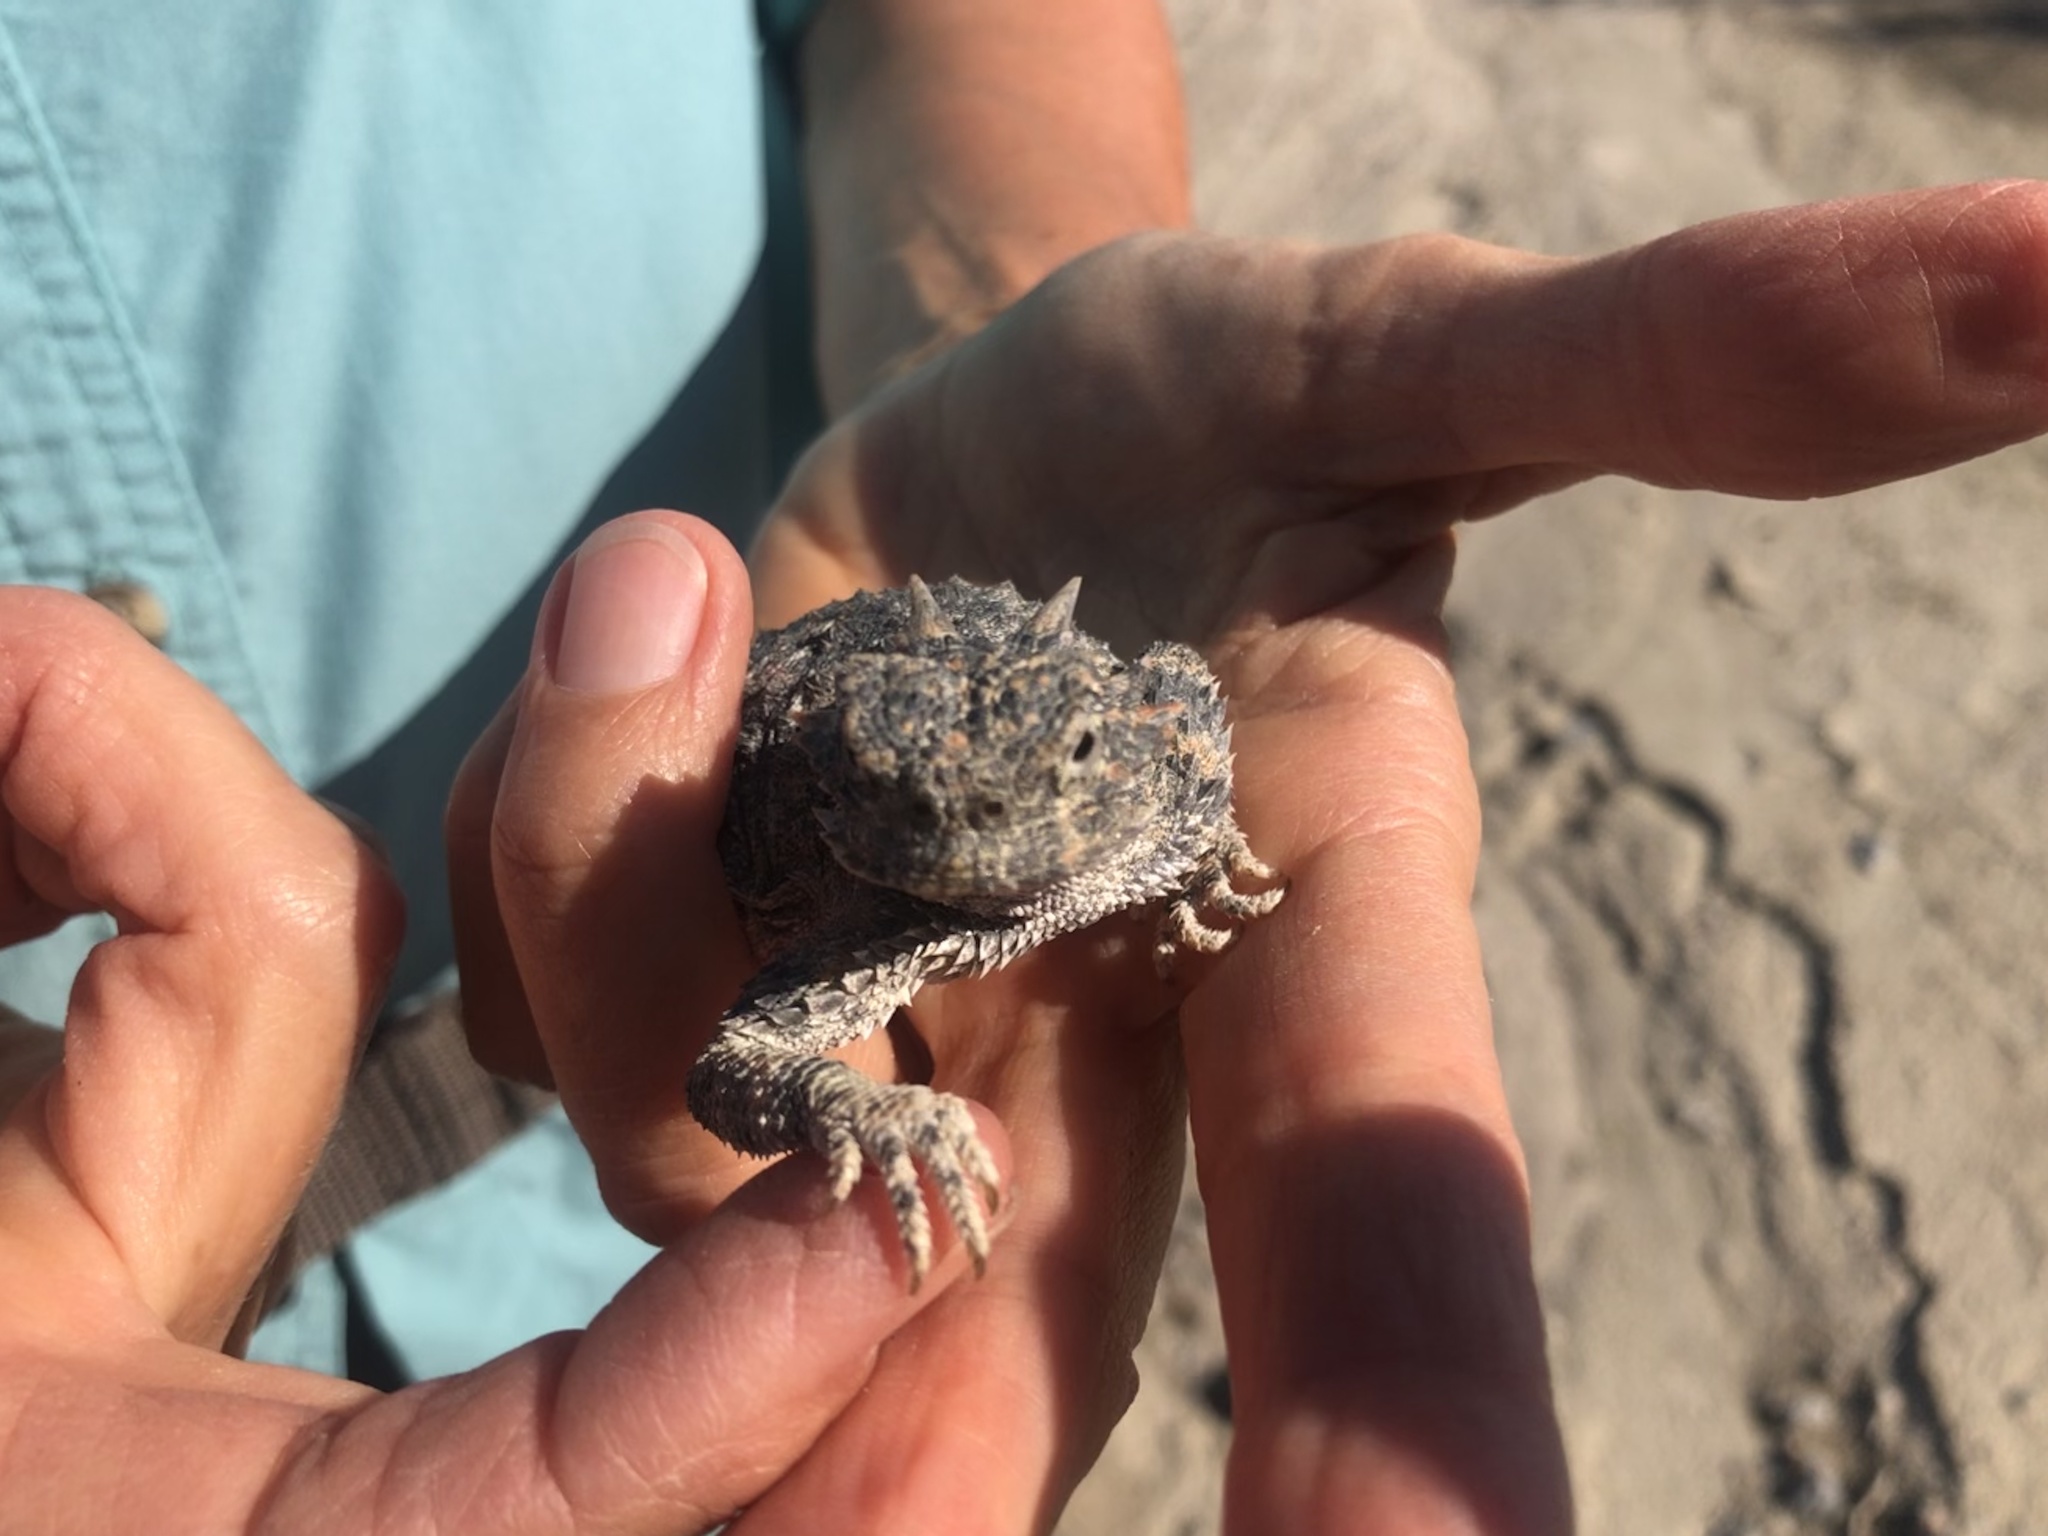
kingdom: Animalia
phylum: Chordata
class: Squamata
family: Phrynosomatidae
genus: Phrynosoma
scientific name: Phrynosoma platyrhinos
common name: Desert horned lizard
